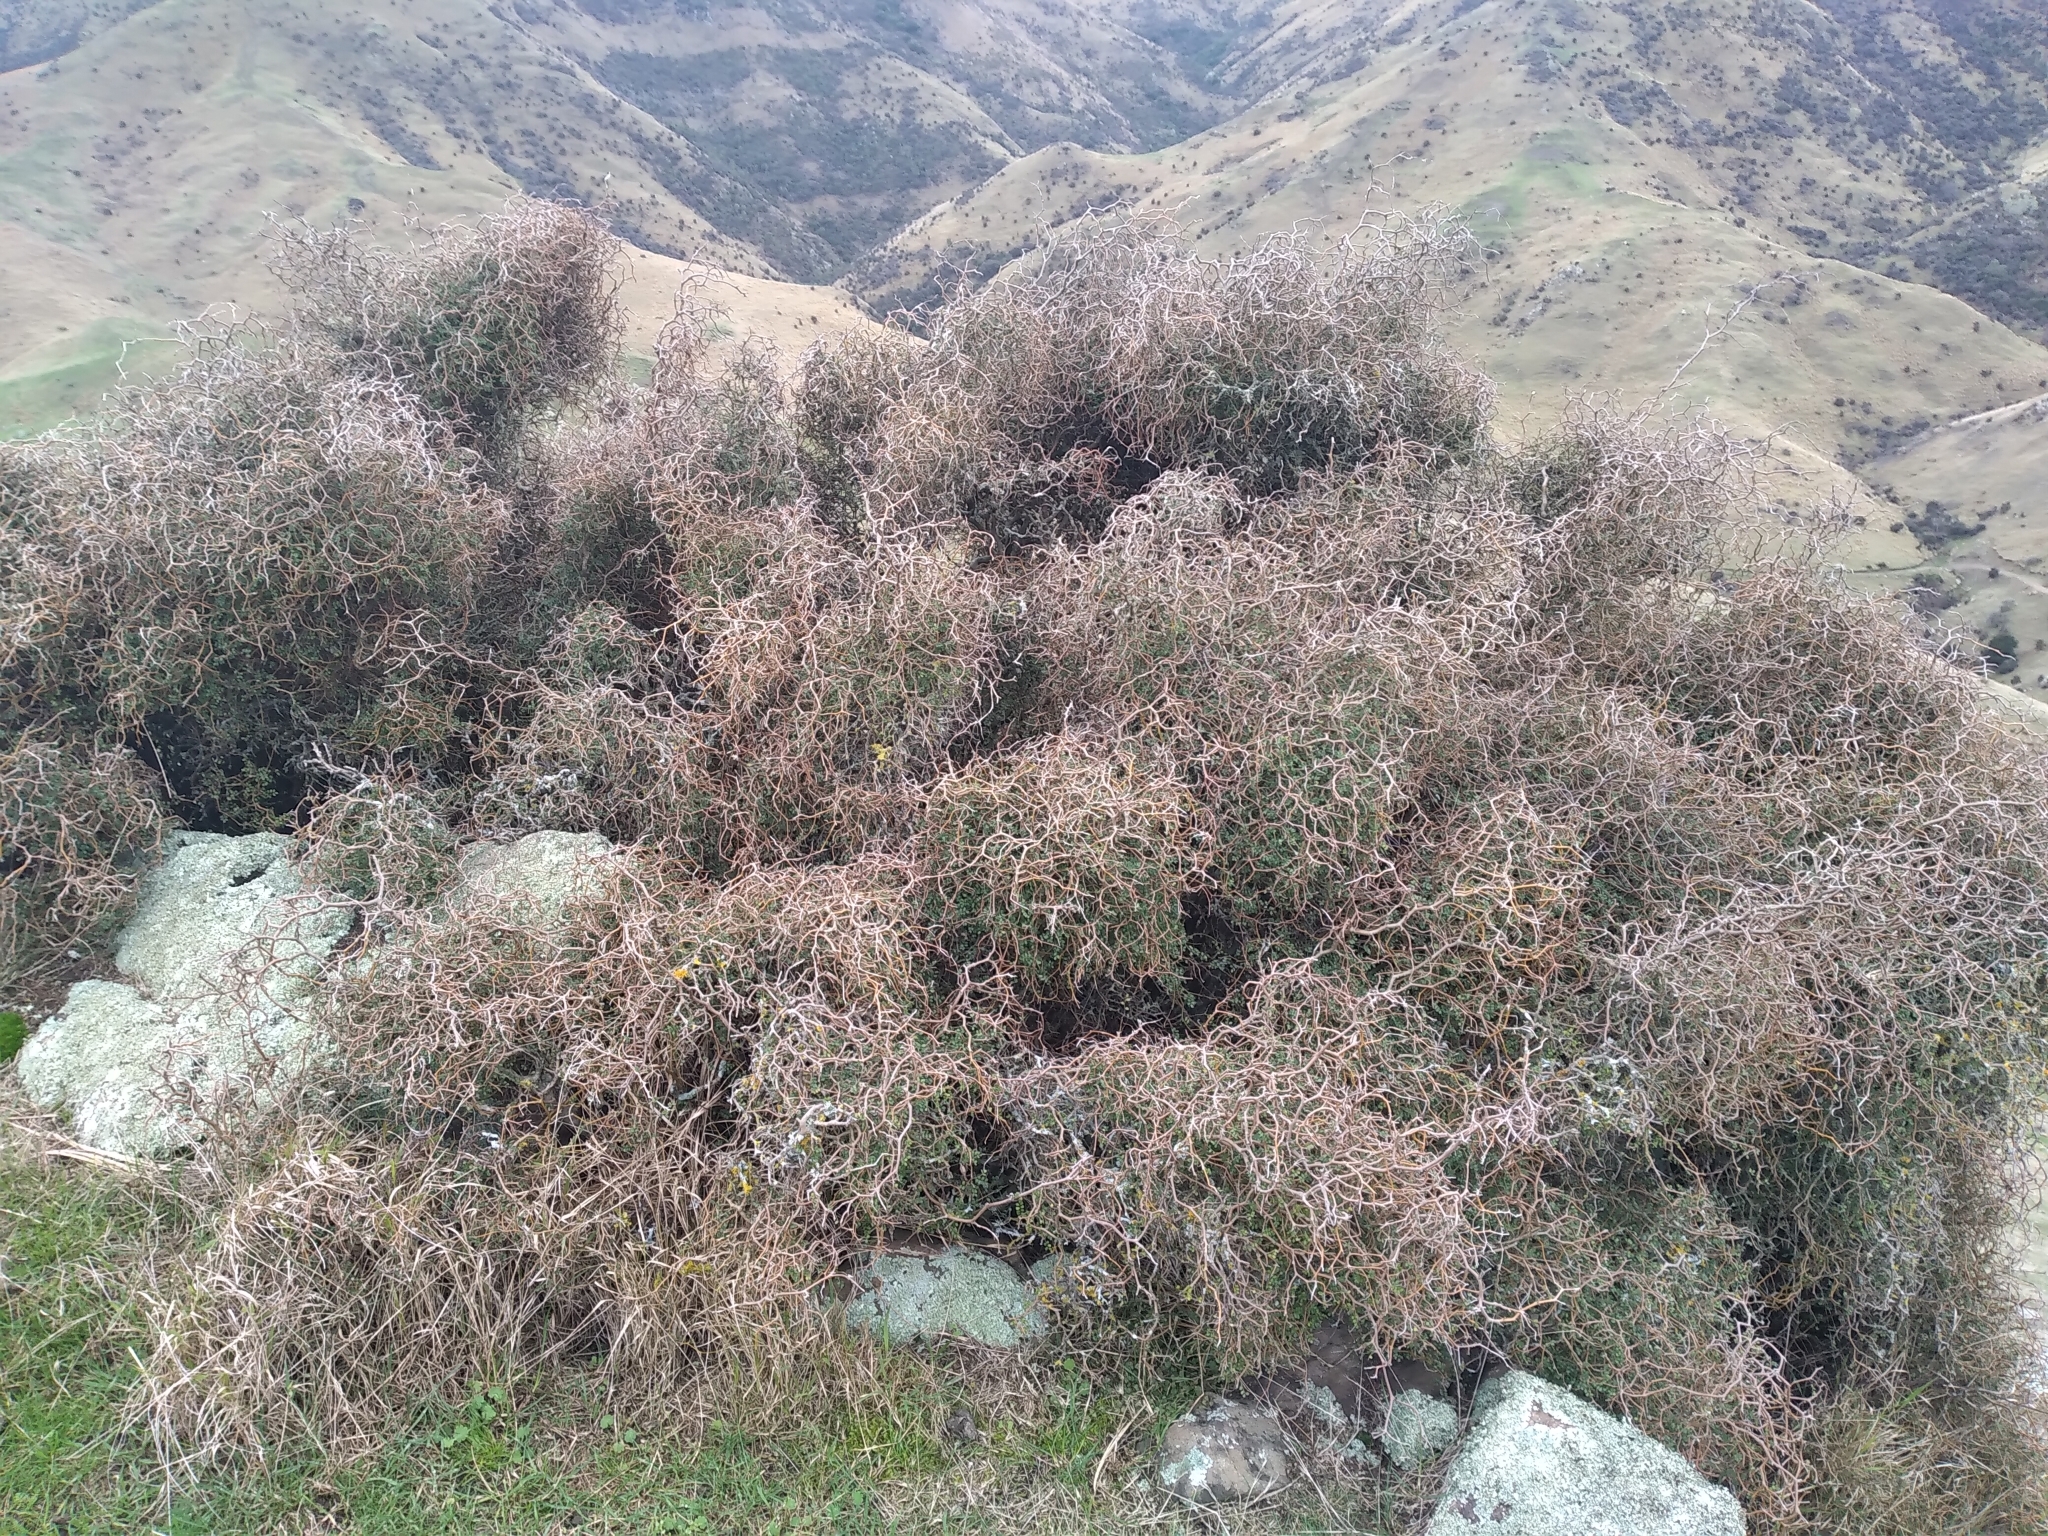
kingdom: Plantae
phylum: Tracheophyta
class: Magnoliopsida
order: Fabales
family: Fabaceae
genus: Sophora
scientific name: Sophora prostrata
